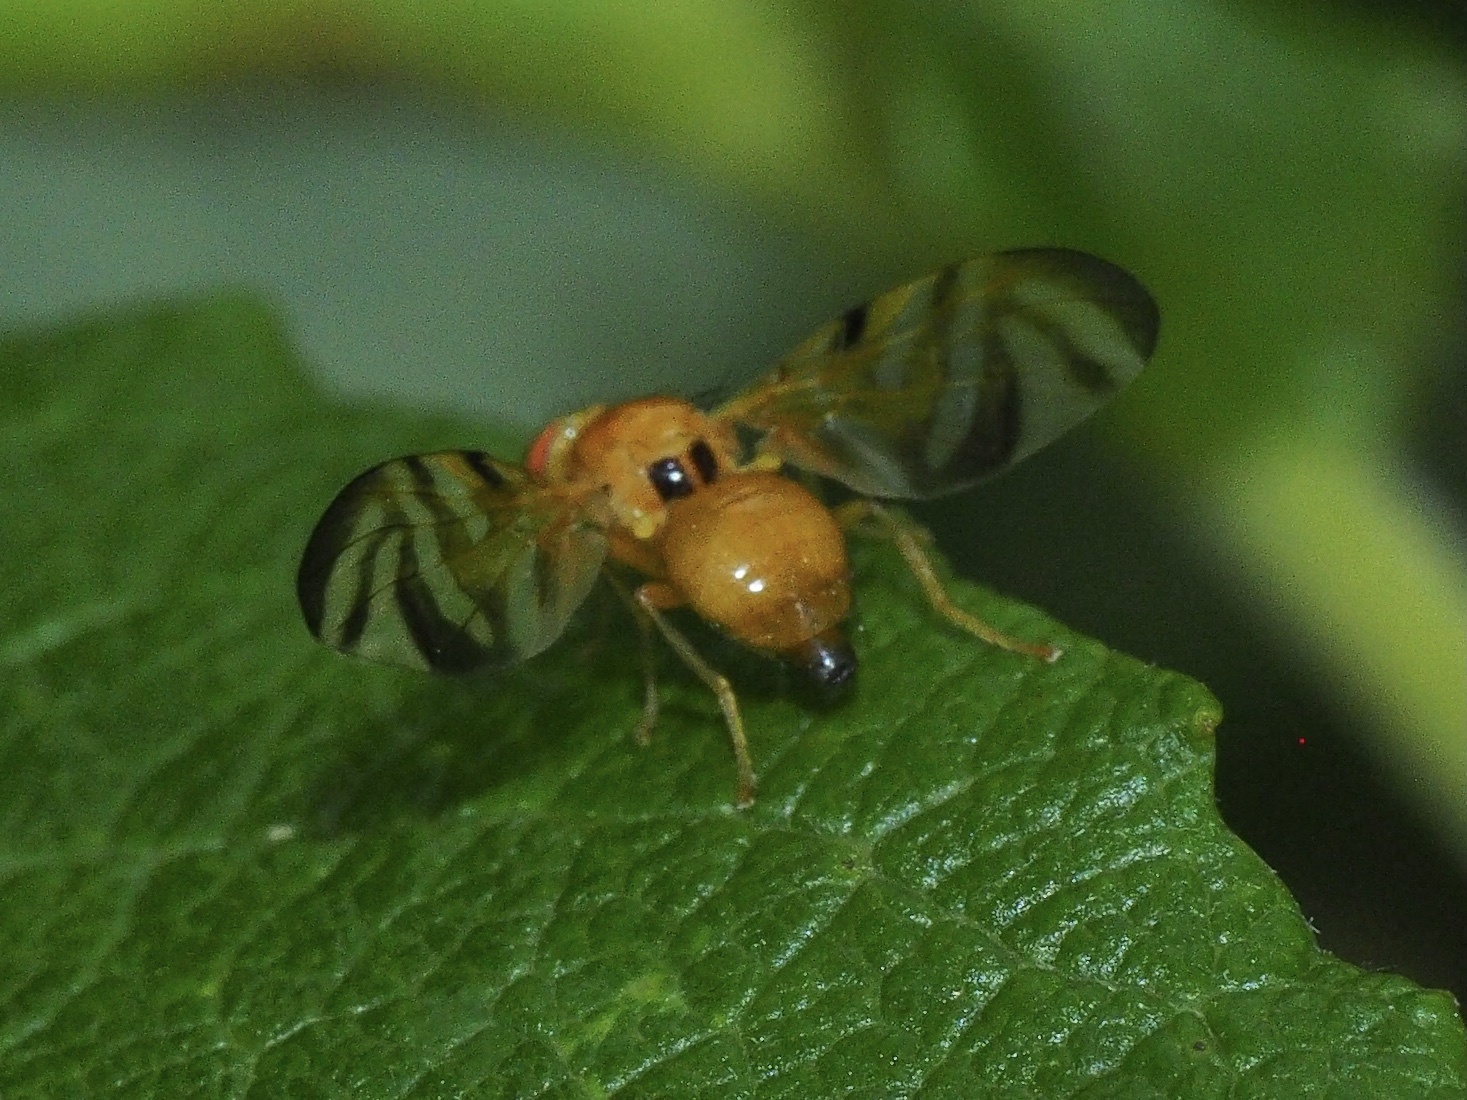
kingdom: Animalia
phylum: Arthropoda
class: Insecta
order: Diptera
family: Tephritidae
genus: Myoleja
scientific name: Myoleja lucida
